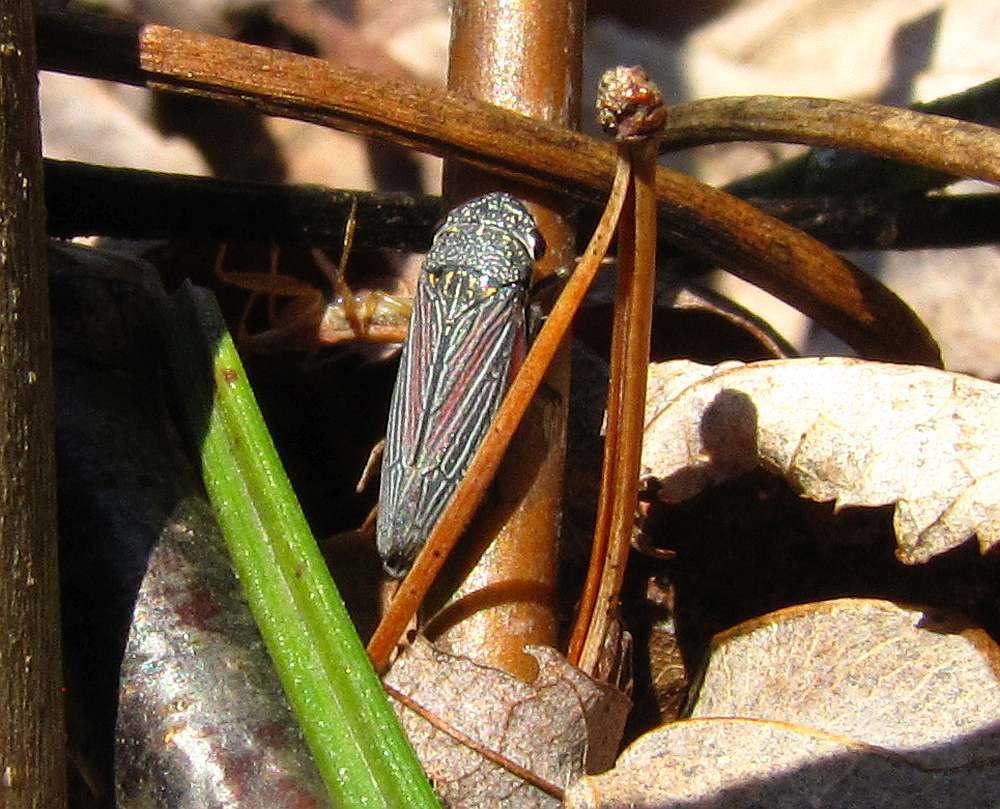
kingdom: Animalia
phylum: Arthropoda
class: Insecta
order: Hemiptera
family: Cicadellidae
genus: Cuerna
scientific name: Cuerna striata
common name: Striped leafhopper
